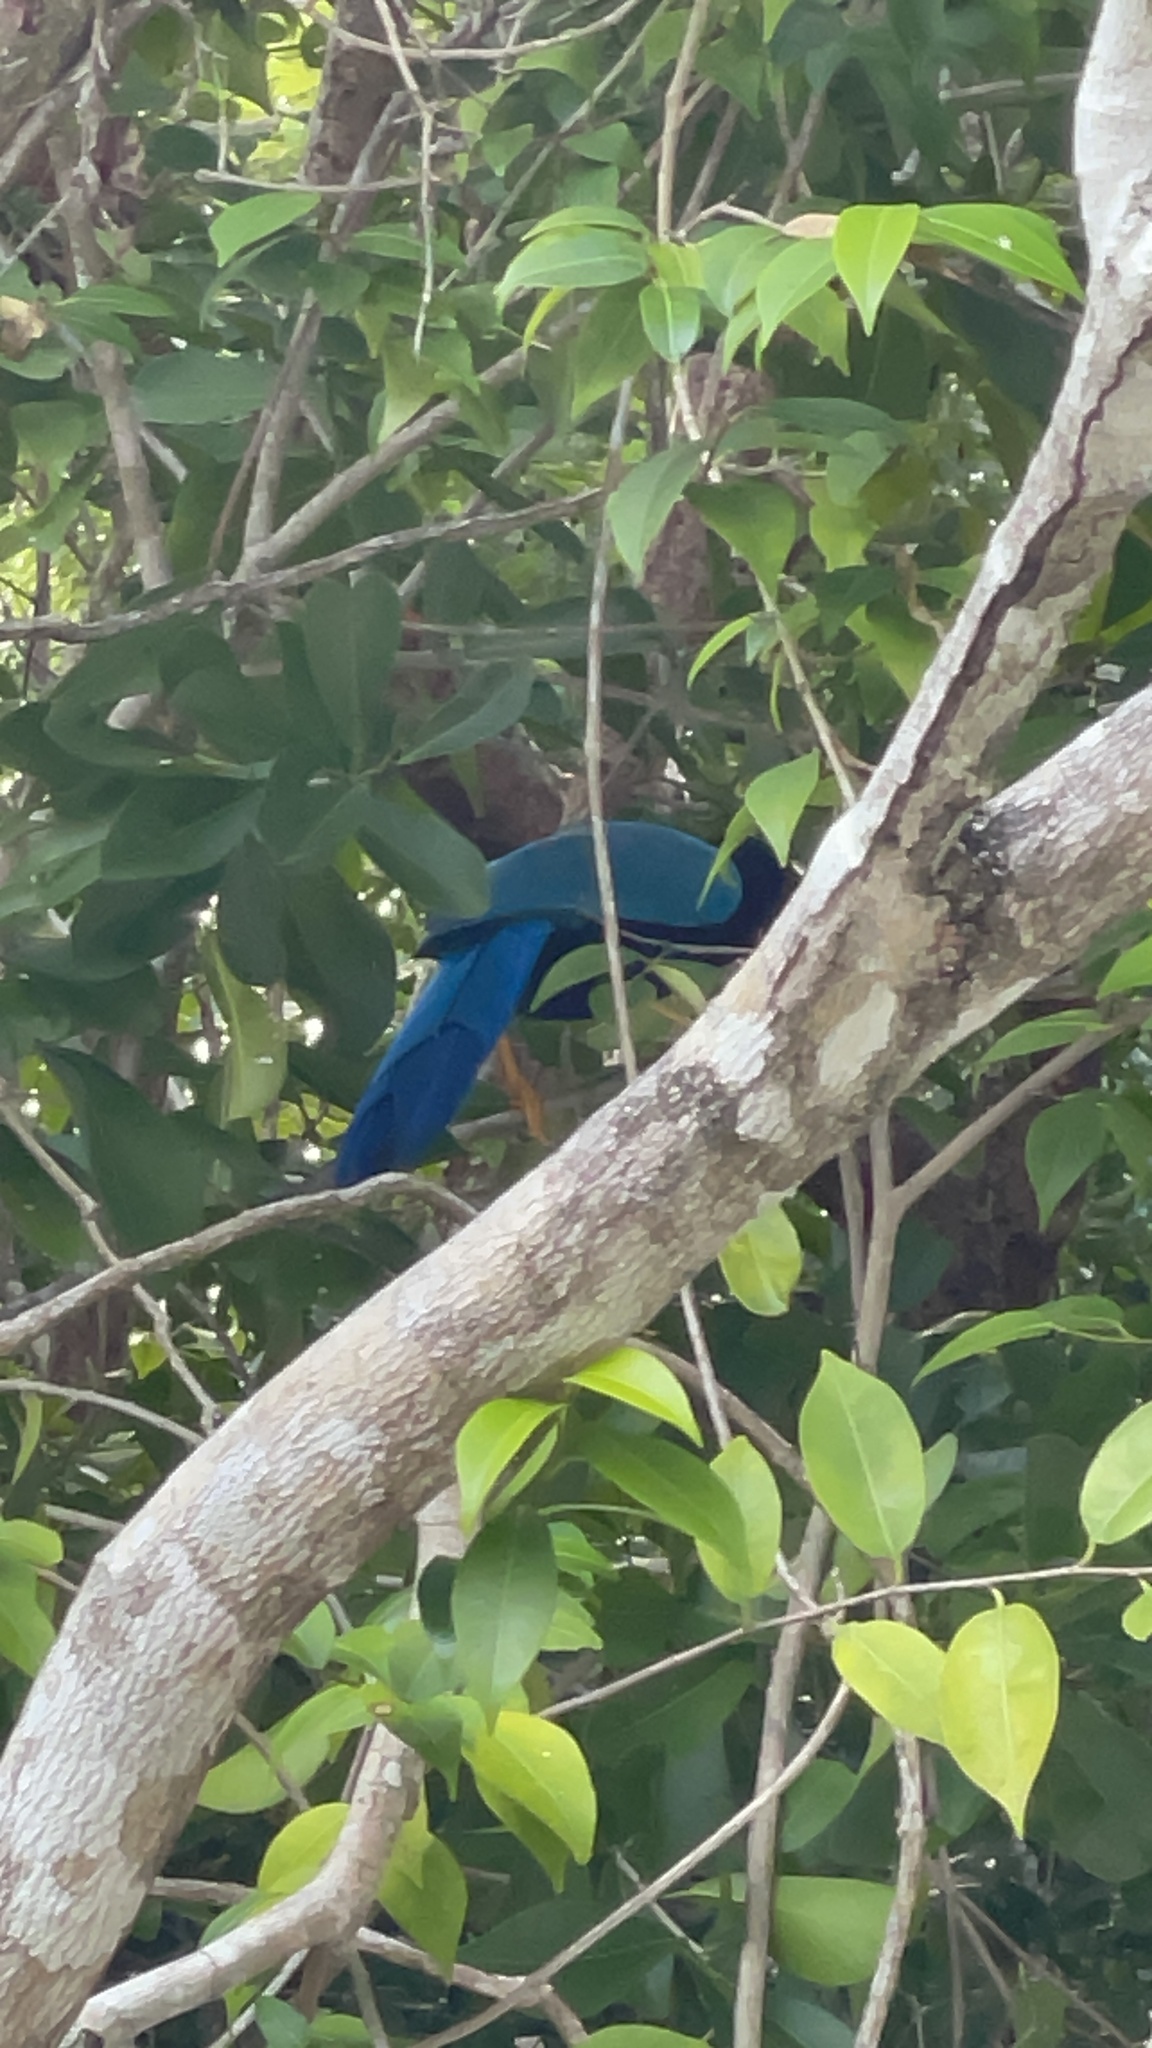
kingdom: Animalia
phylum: Chordata
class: Aves
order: Passeriformes
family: Corvidae
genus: Cyanocorax
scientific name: Cyanocorax yucatanicus
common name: Yucatan jay
